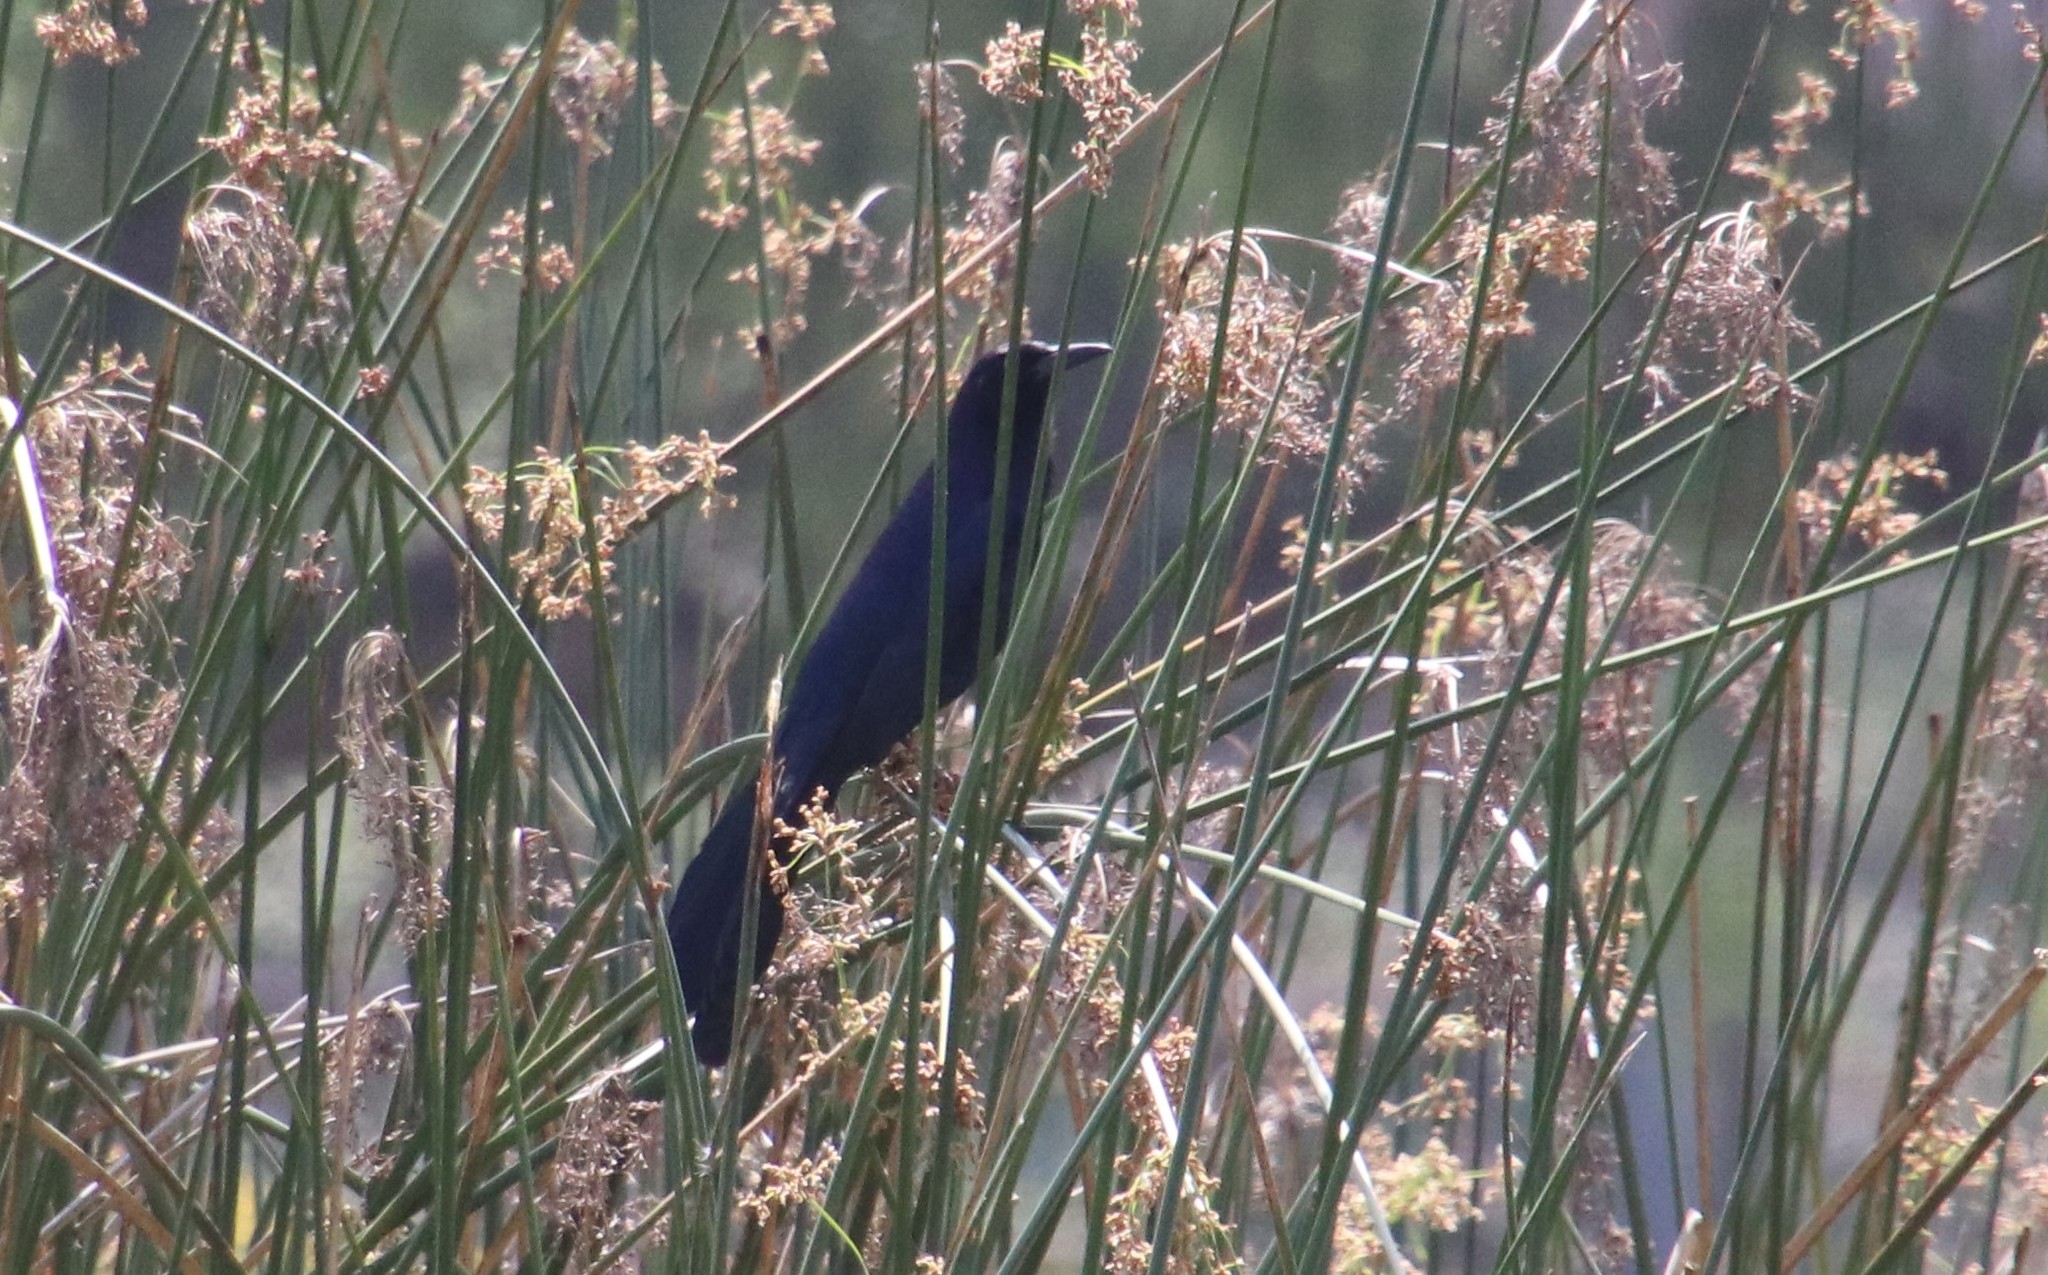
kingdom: Animalia
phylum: Chordata
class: Aves
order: Passeriformes
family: Icteridae
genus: Quiscalus
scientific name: Quiscalus mexicanus
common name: Great-tailed grackle
